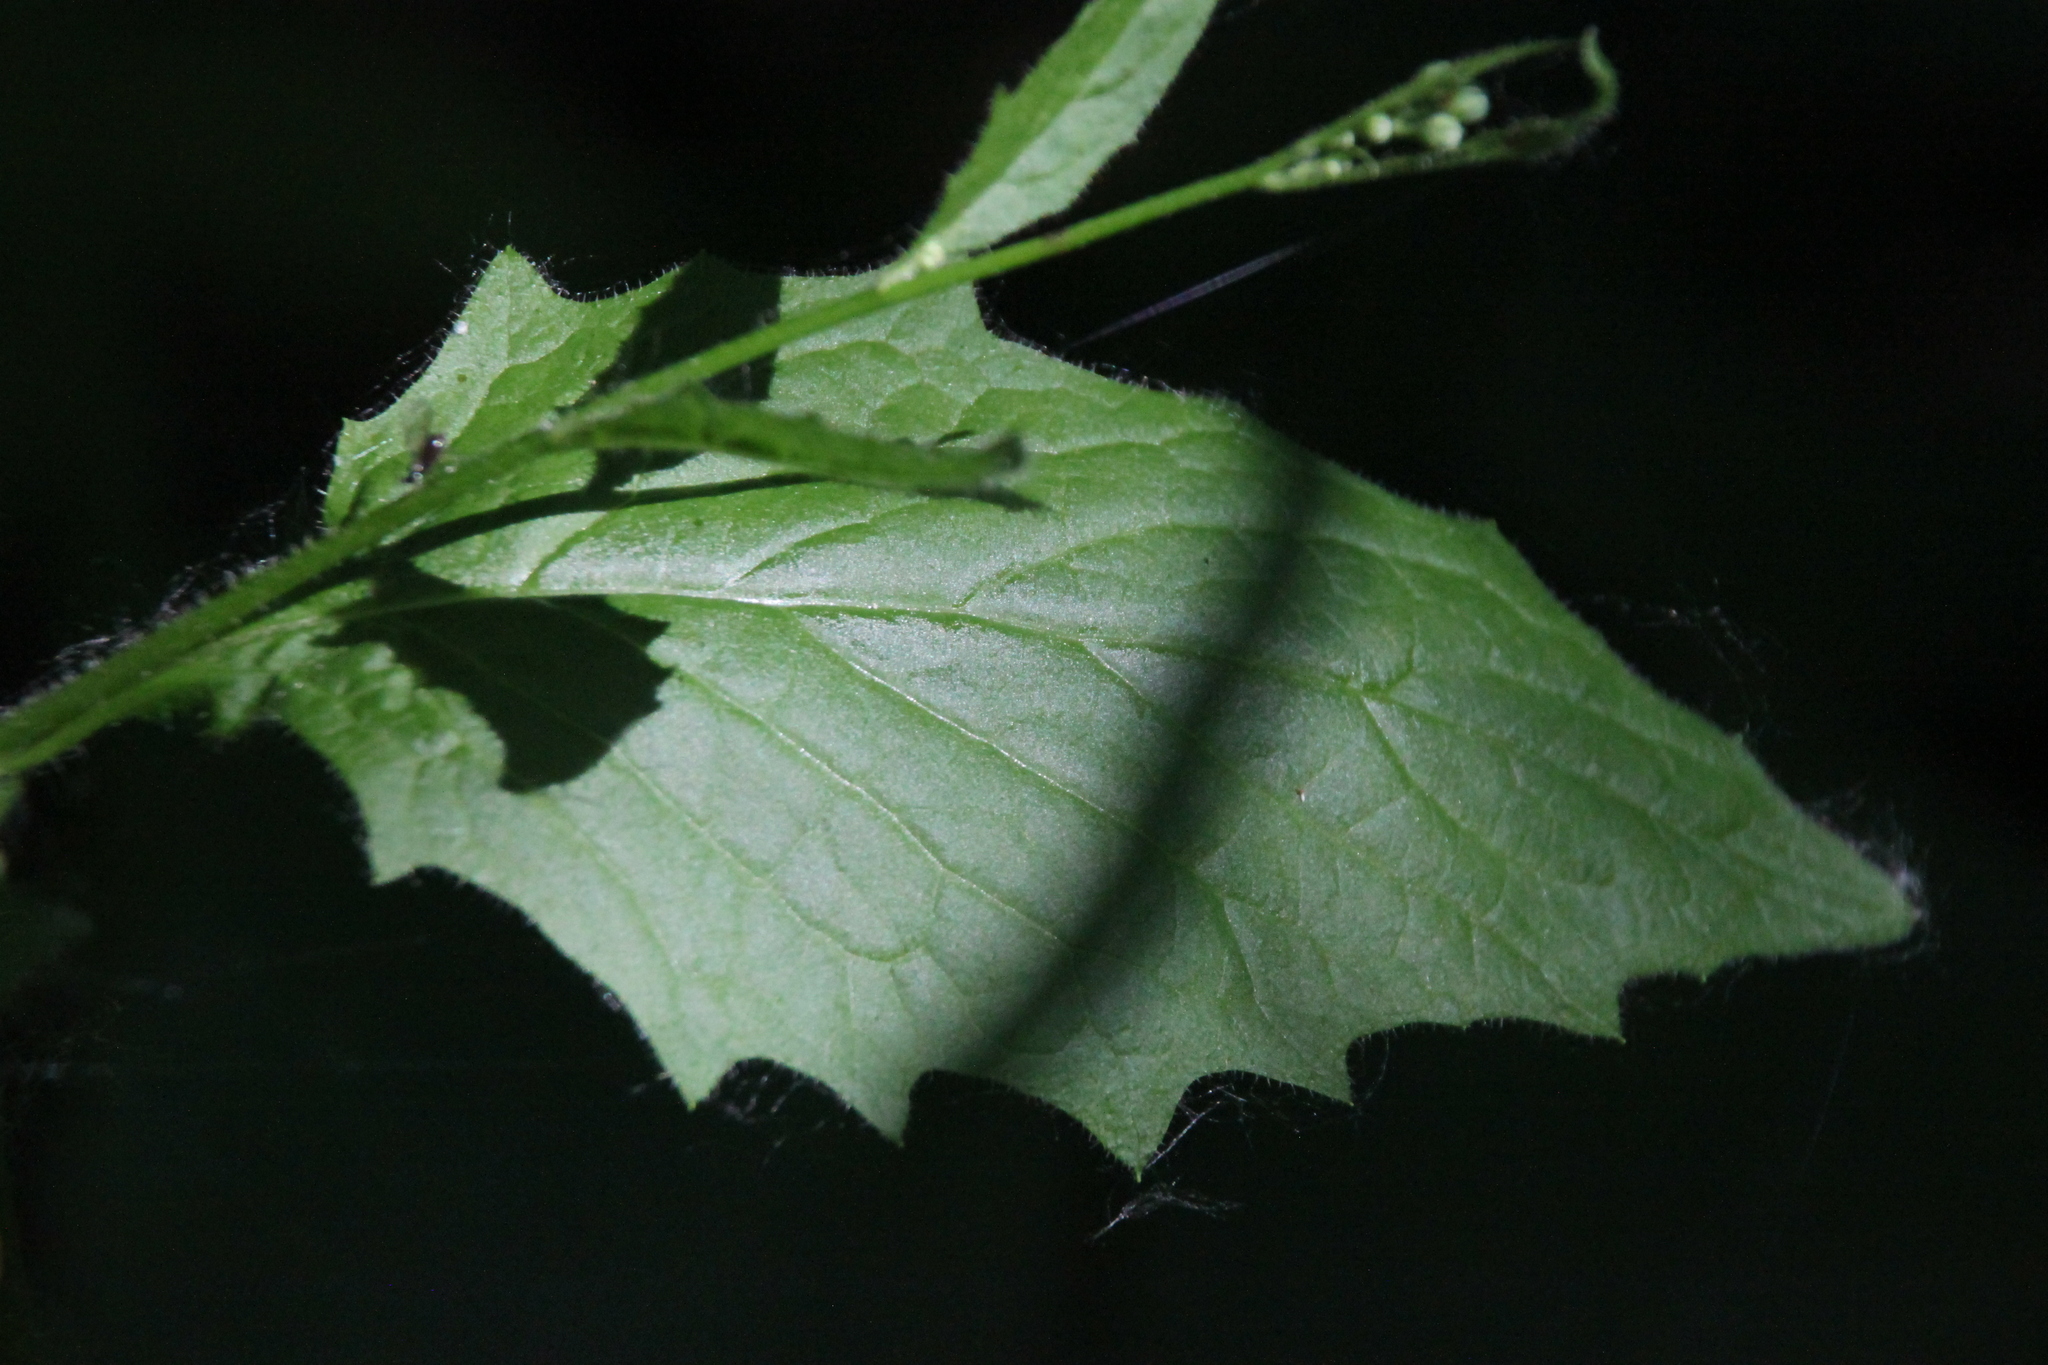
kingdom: Plantae
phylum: Tracheophyta
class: Magnoliopsida
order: Asterales
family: Asteraceae
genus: Lapsana
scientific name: Lapsana communis
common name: Nipplewort
